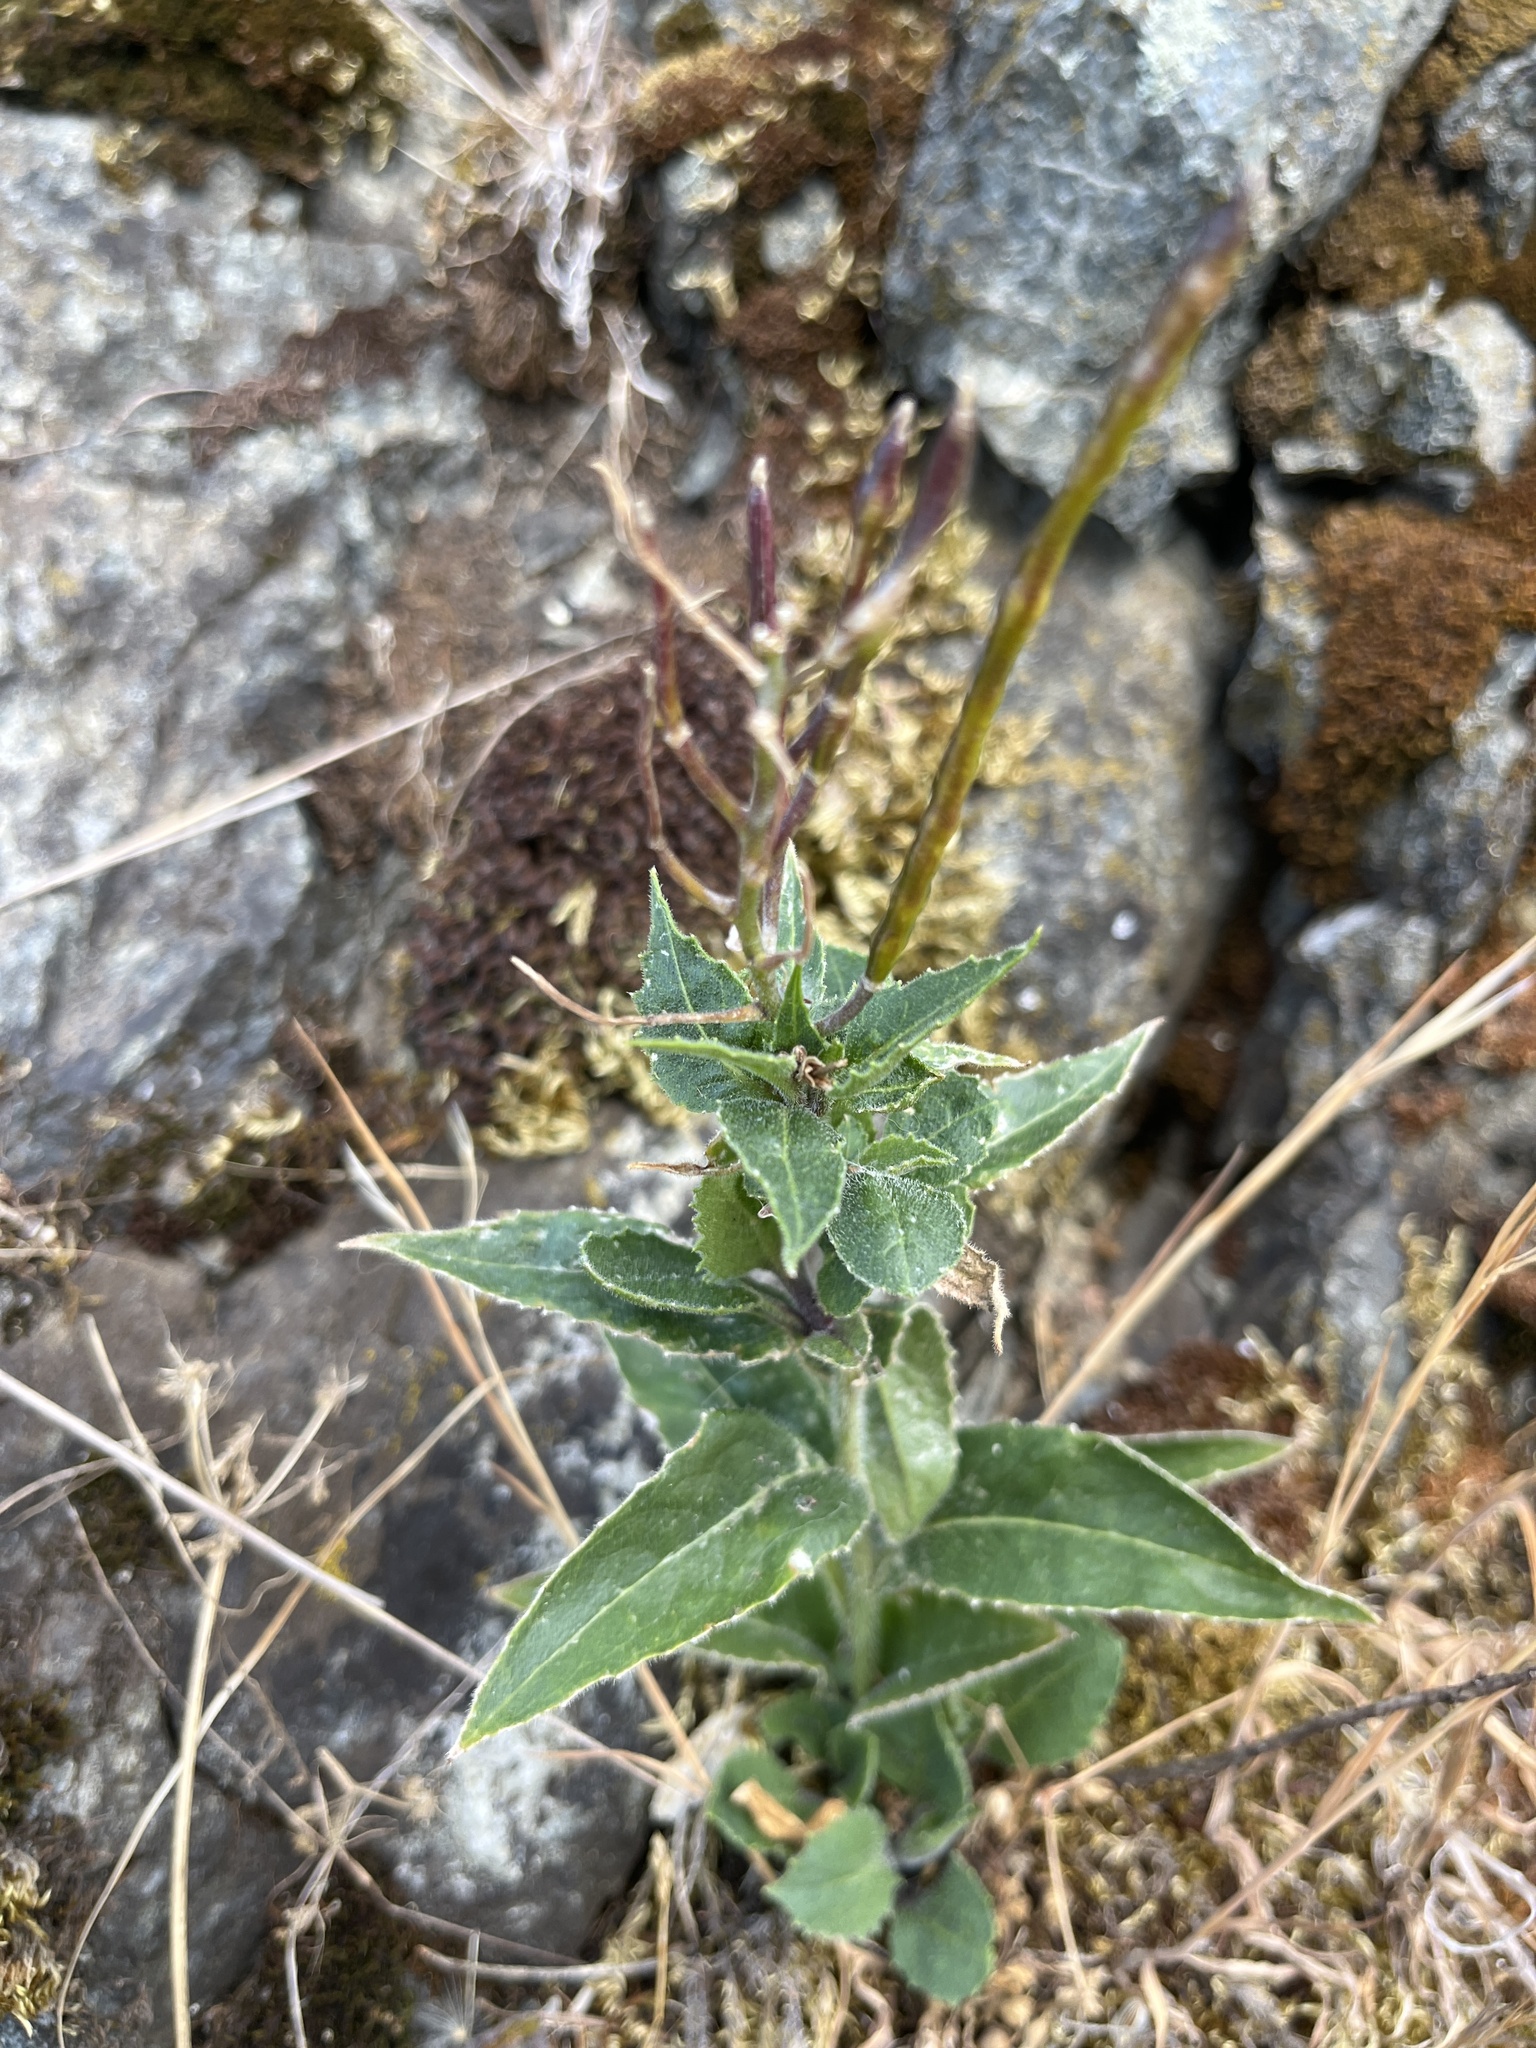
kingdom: Plantae
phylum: Tracheophyta
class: Magnoliopsida
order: Brassicales
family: Brassicaceae
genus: Hesperis
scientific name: Hesperis matronalis
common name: Dame's-violet
